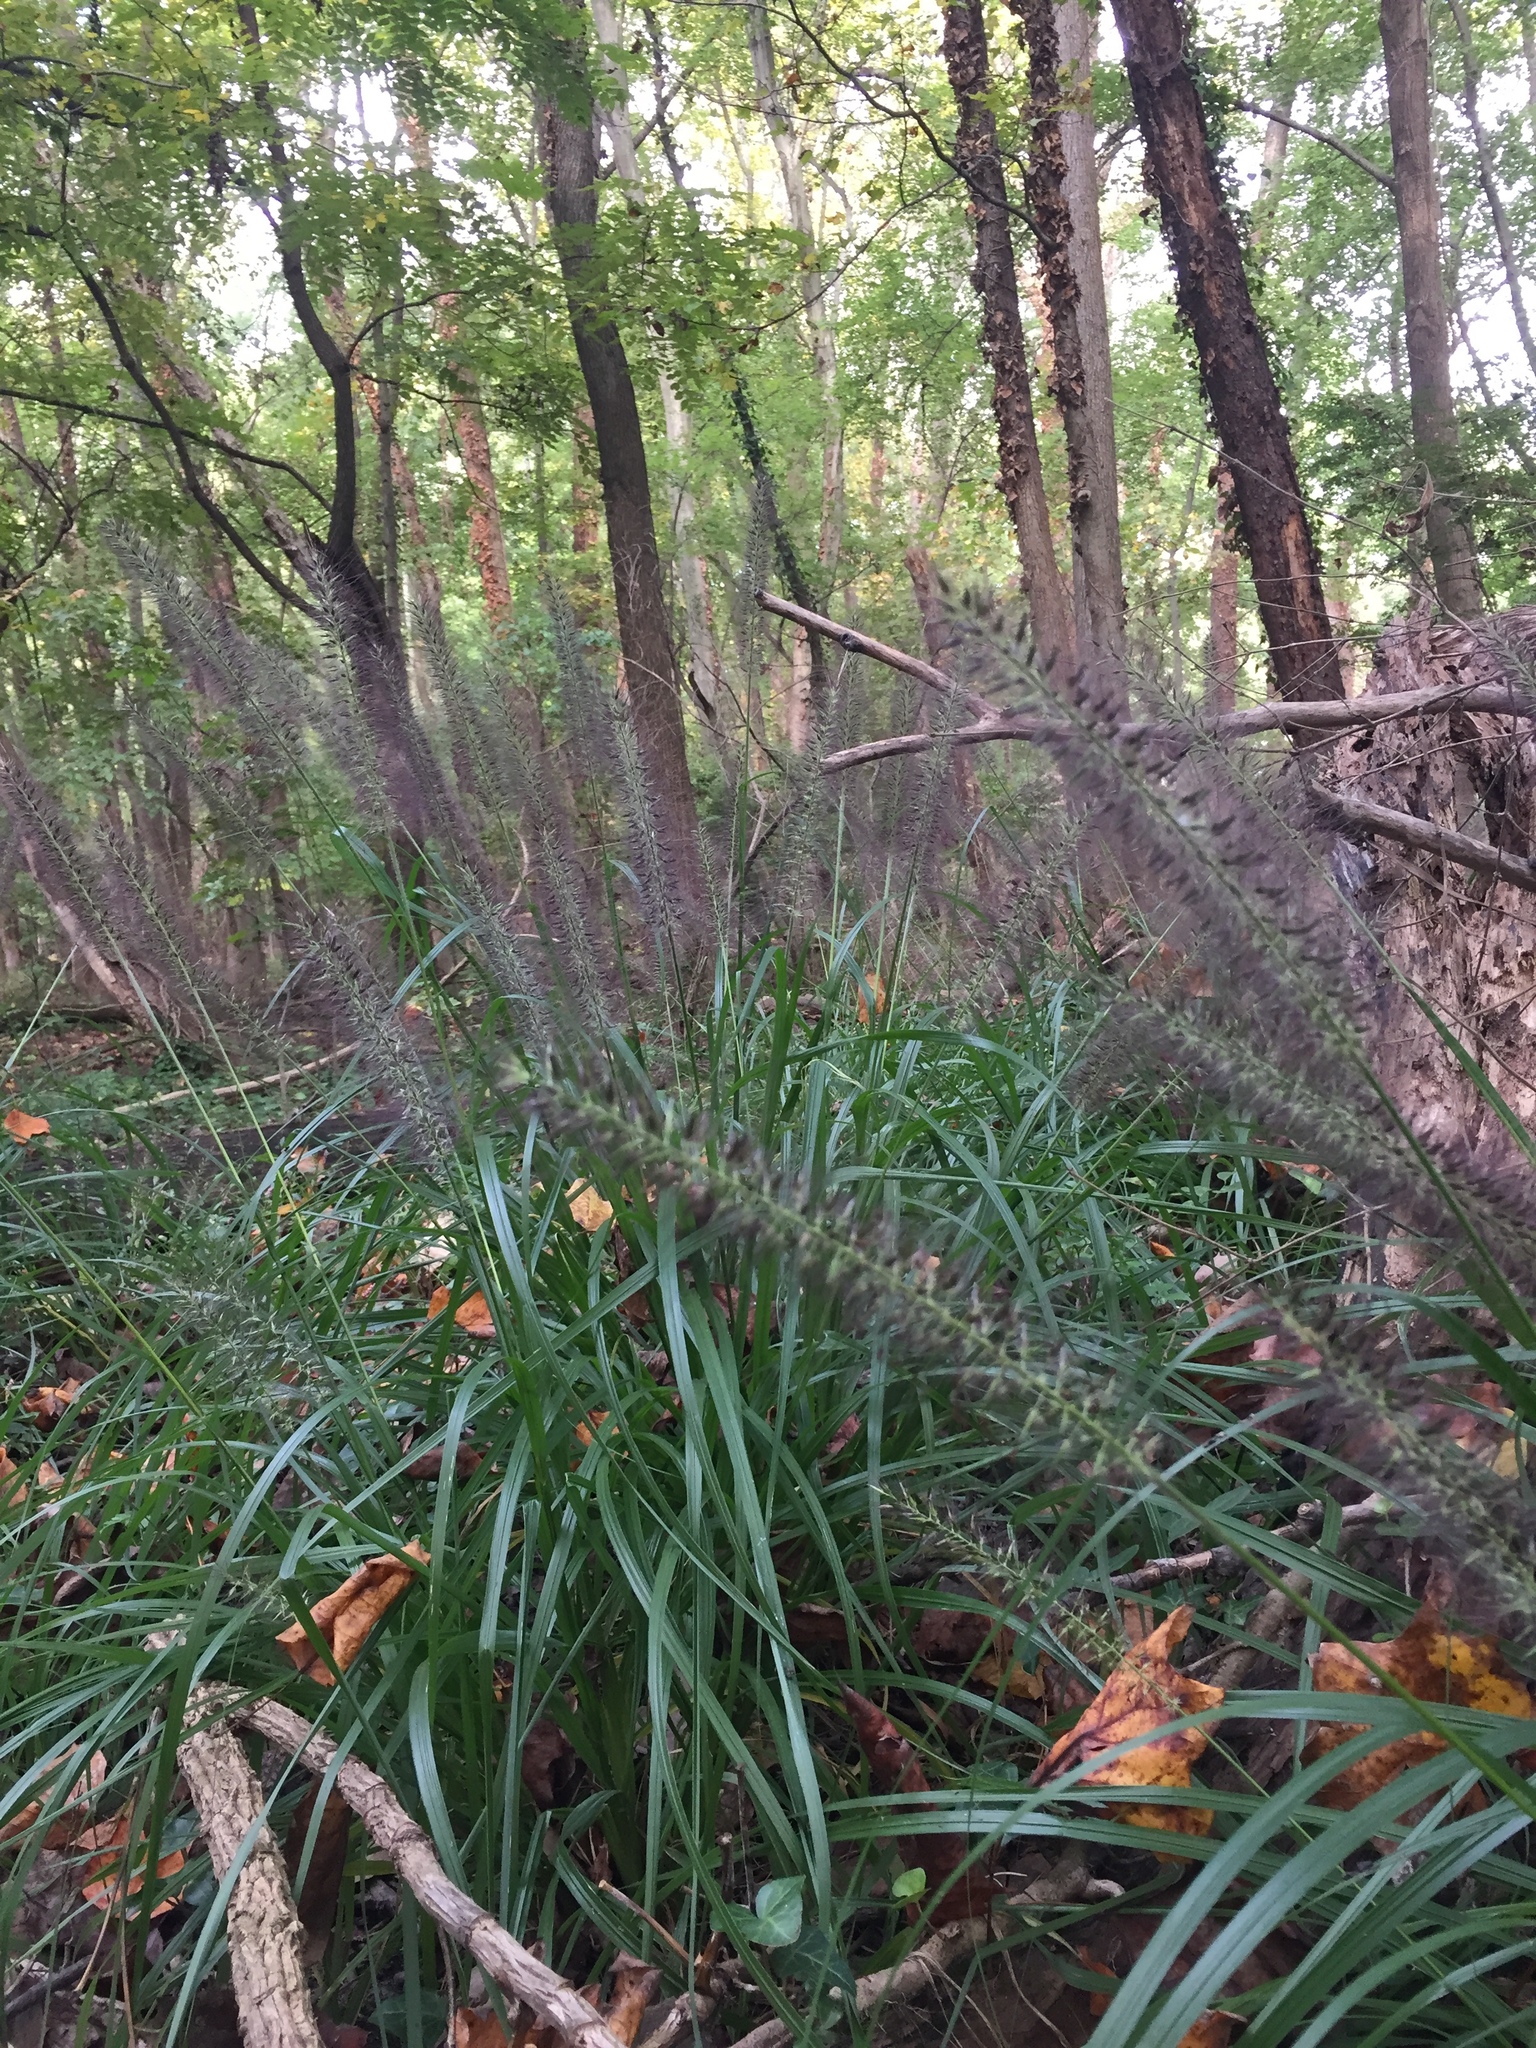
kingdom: Plantae
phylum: Tracheophyta
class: Liliopsida
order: Poales
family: Poaceae
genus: Cenchrus
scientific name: Cenchrus alopecuroides
